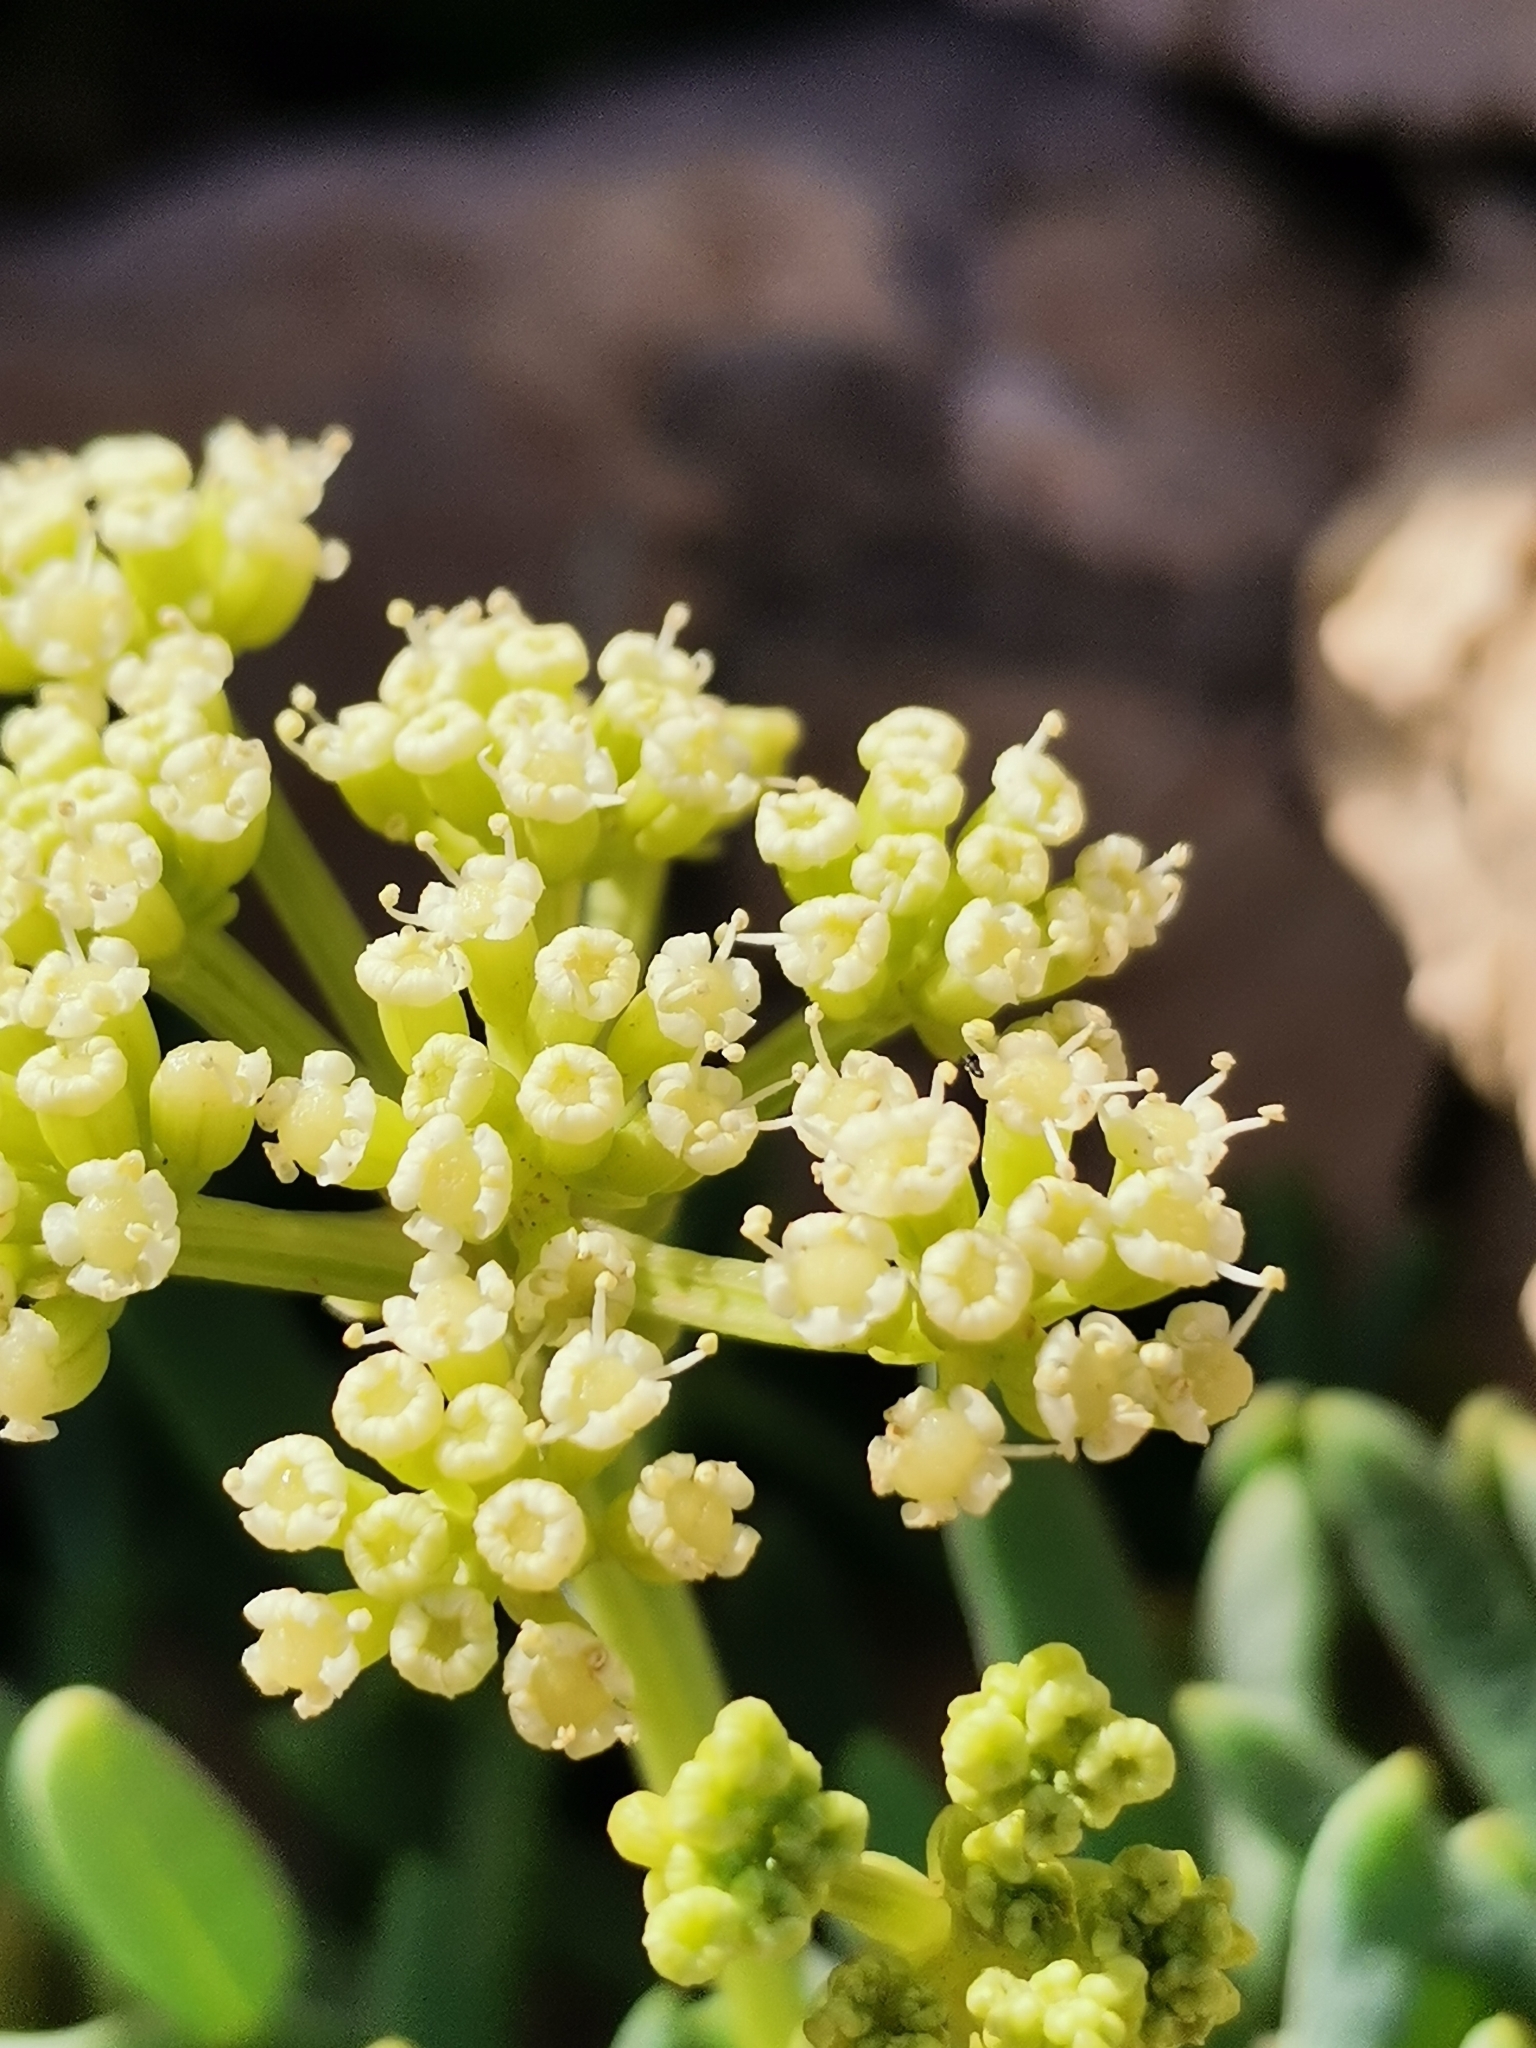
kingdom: Plantae
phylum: Tracheophyta
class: Magnoliopsida
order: Apiales
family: Apiaceae
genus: Crithmum
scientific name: Crithmum maritimum
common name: Rock samphire
